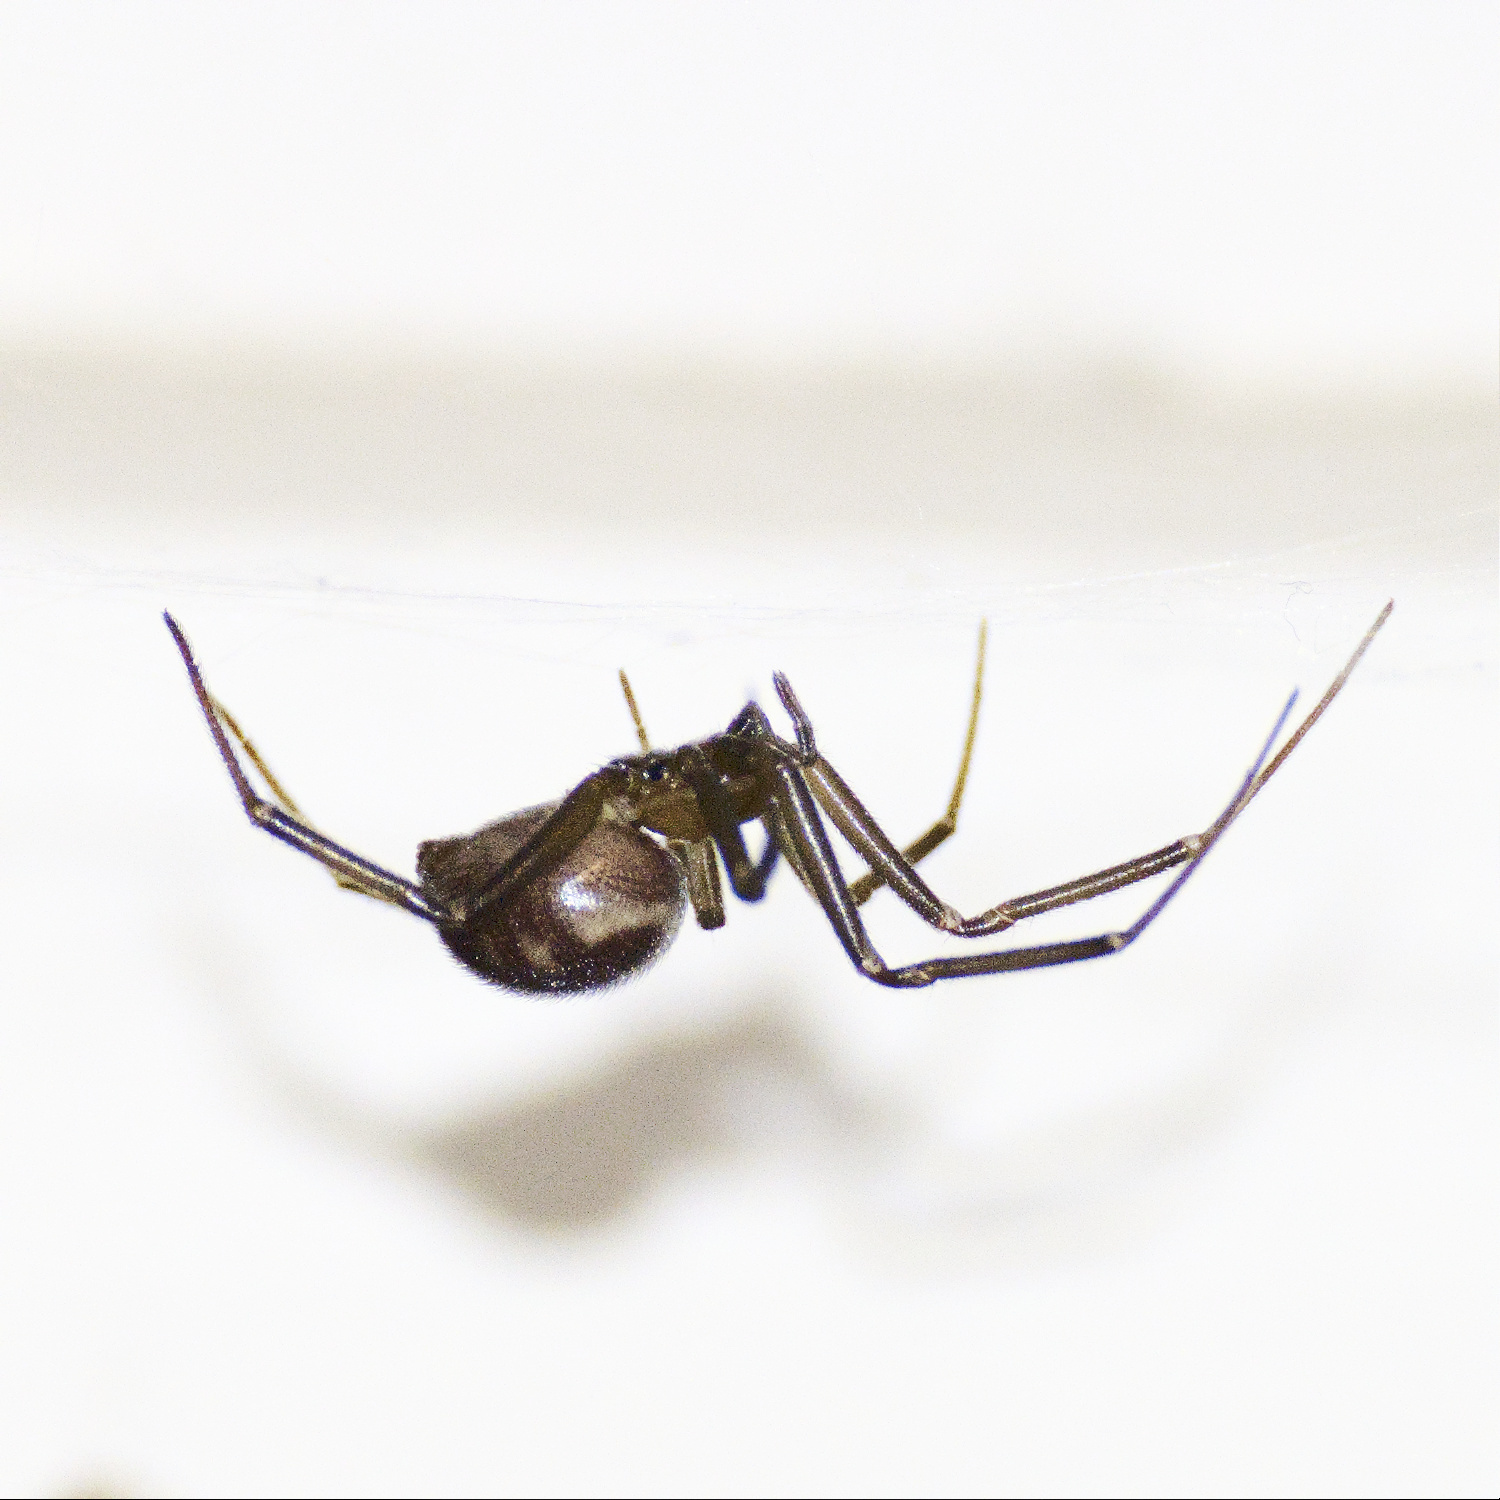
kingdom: Animalia
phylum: Arthropoda
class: Arachnida
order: Araneae
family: Theridiidae
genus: Steatoda
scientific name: Steatoda grossa
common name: False black widow
